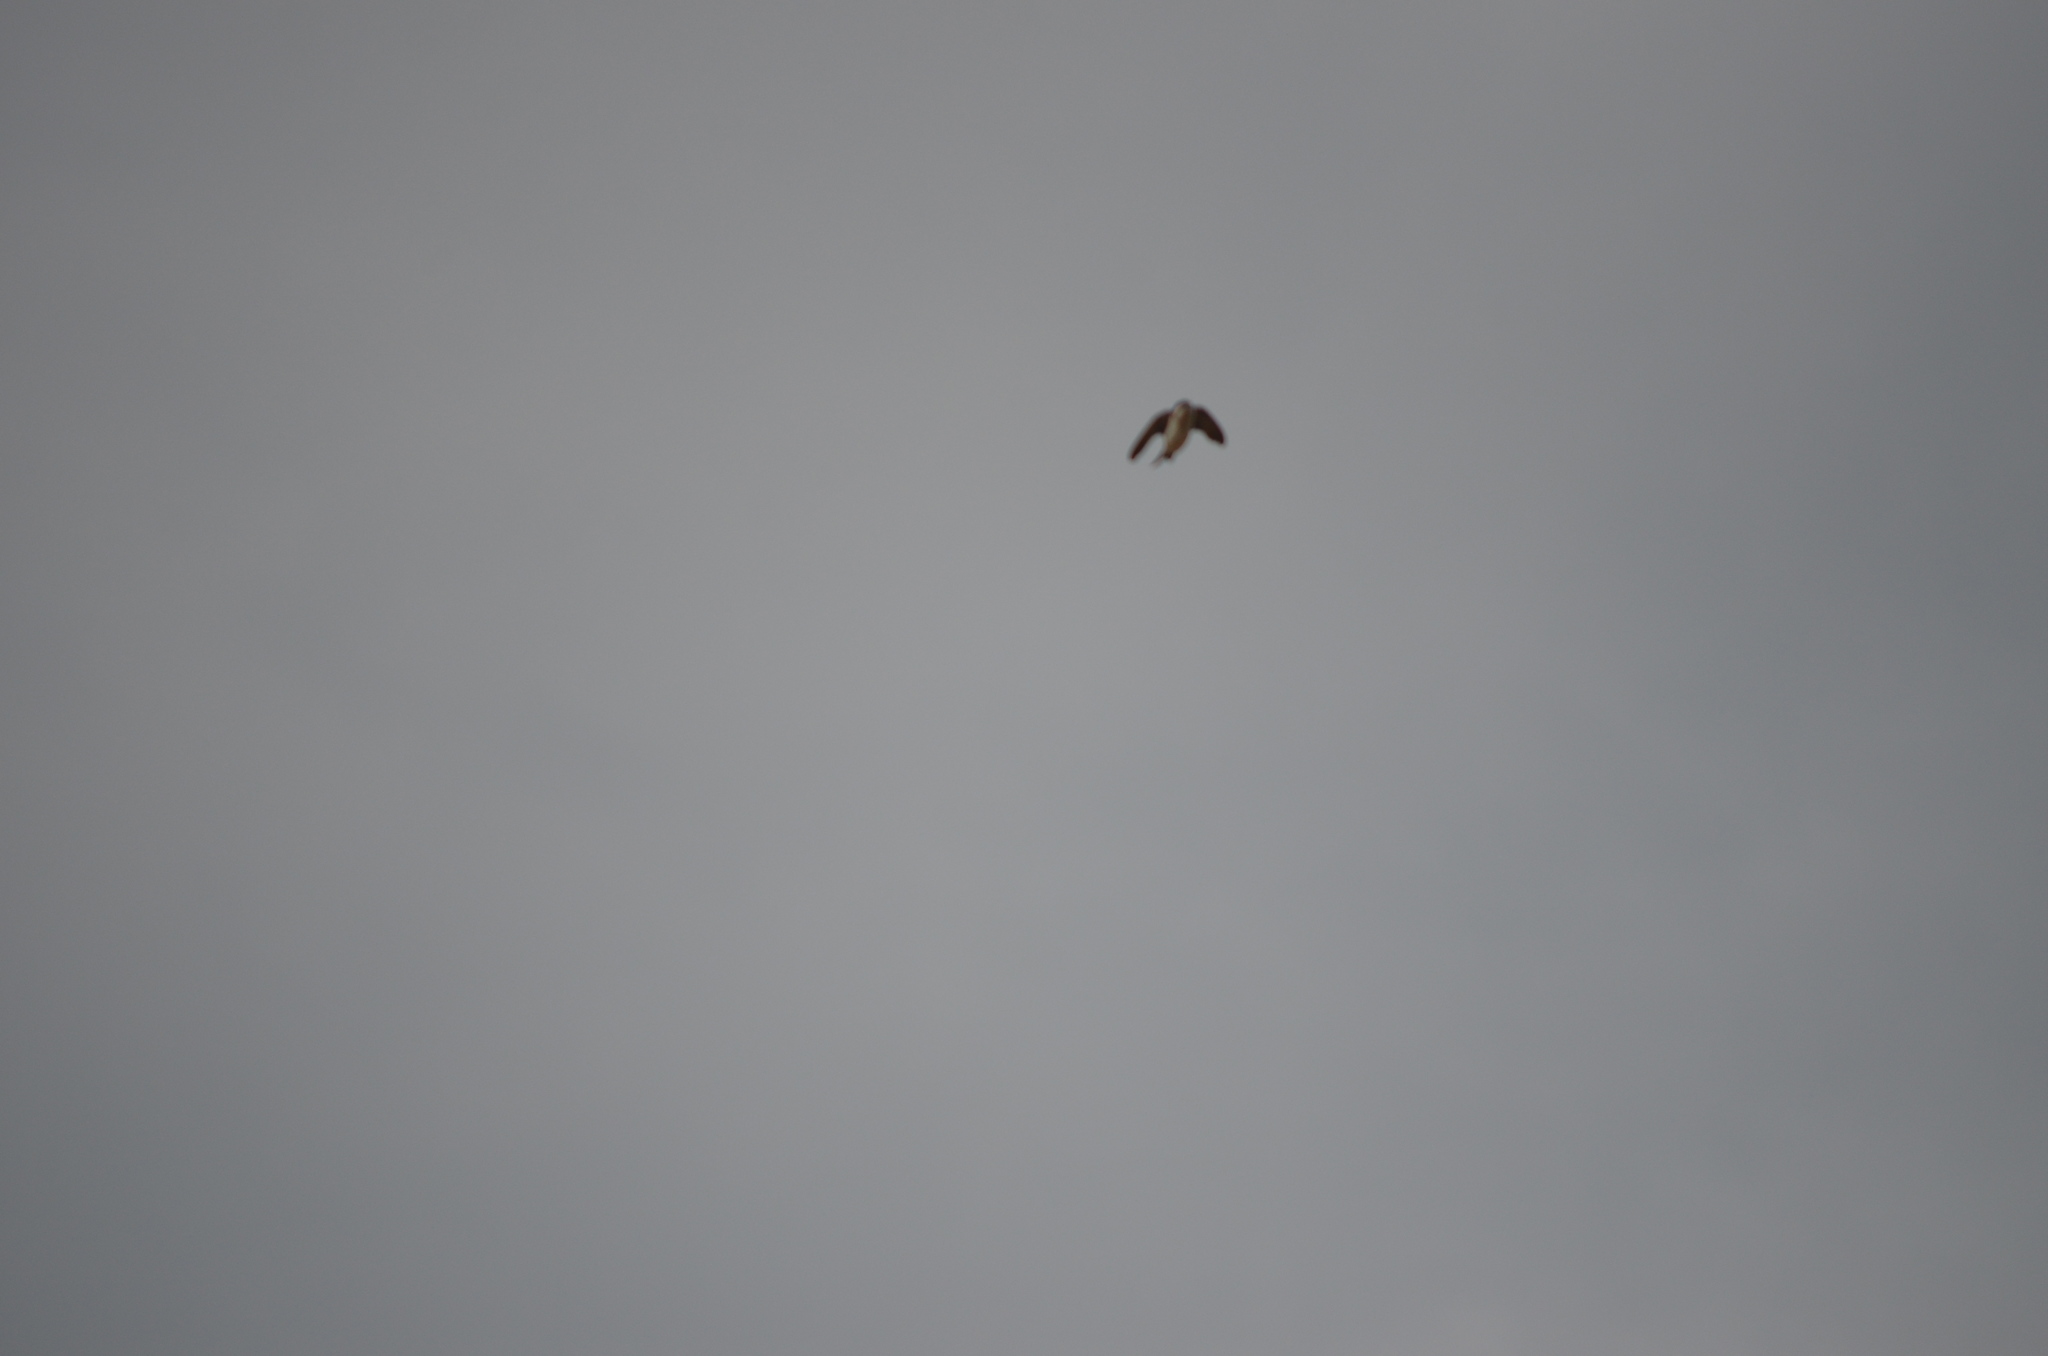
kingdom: Animalia
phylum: Chordata
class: Aves
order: Passeriformes
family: Hirundinidae
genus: Riparia
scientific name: Riparia riparia
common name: Sand martin
